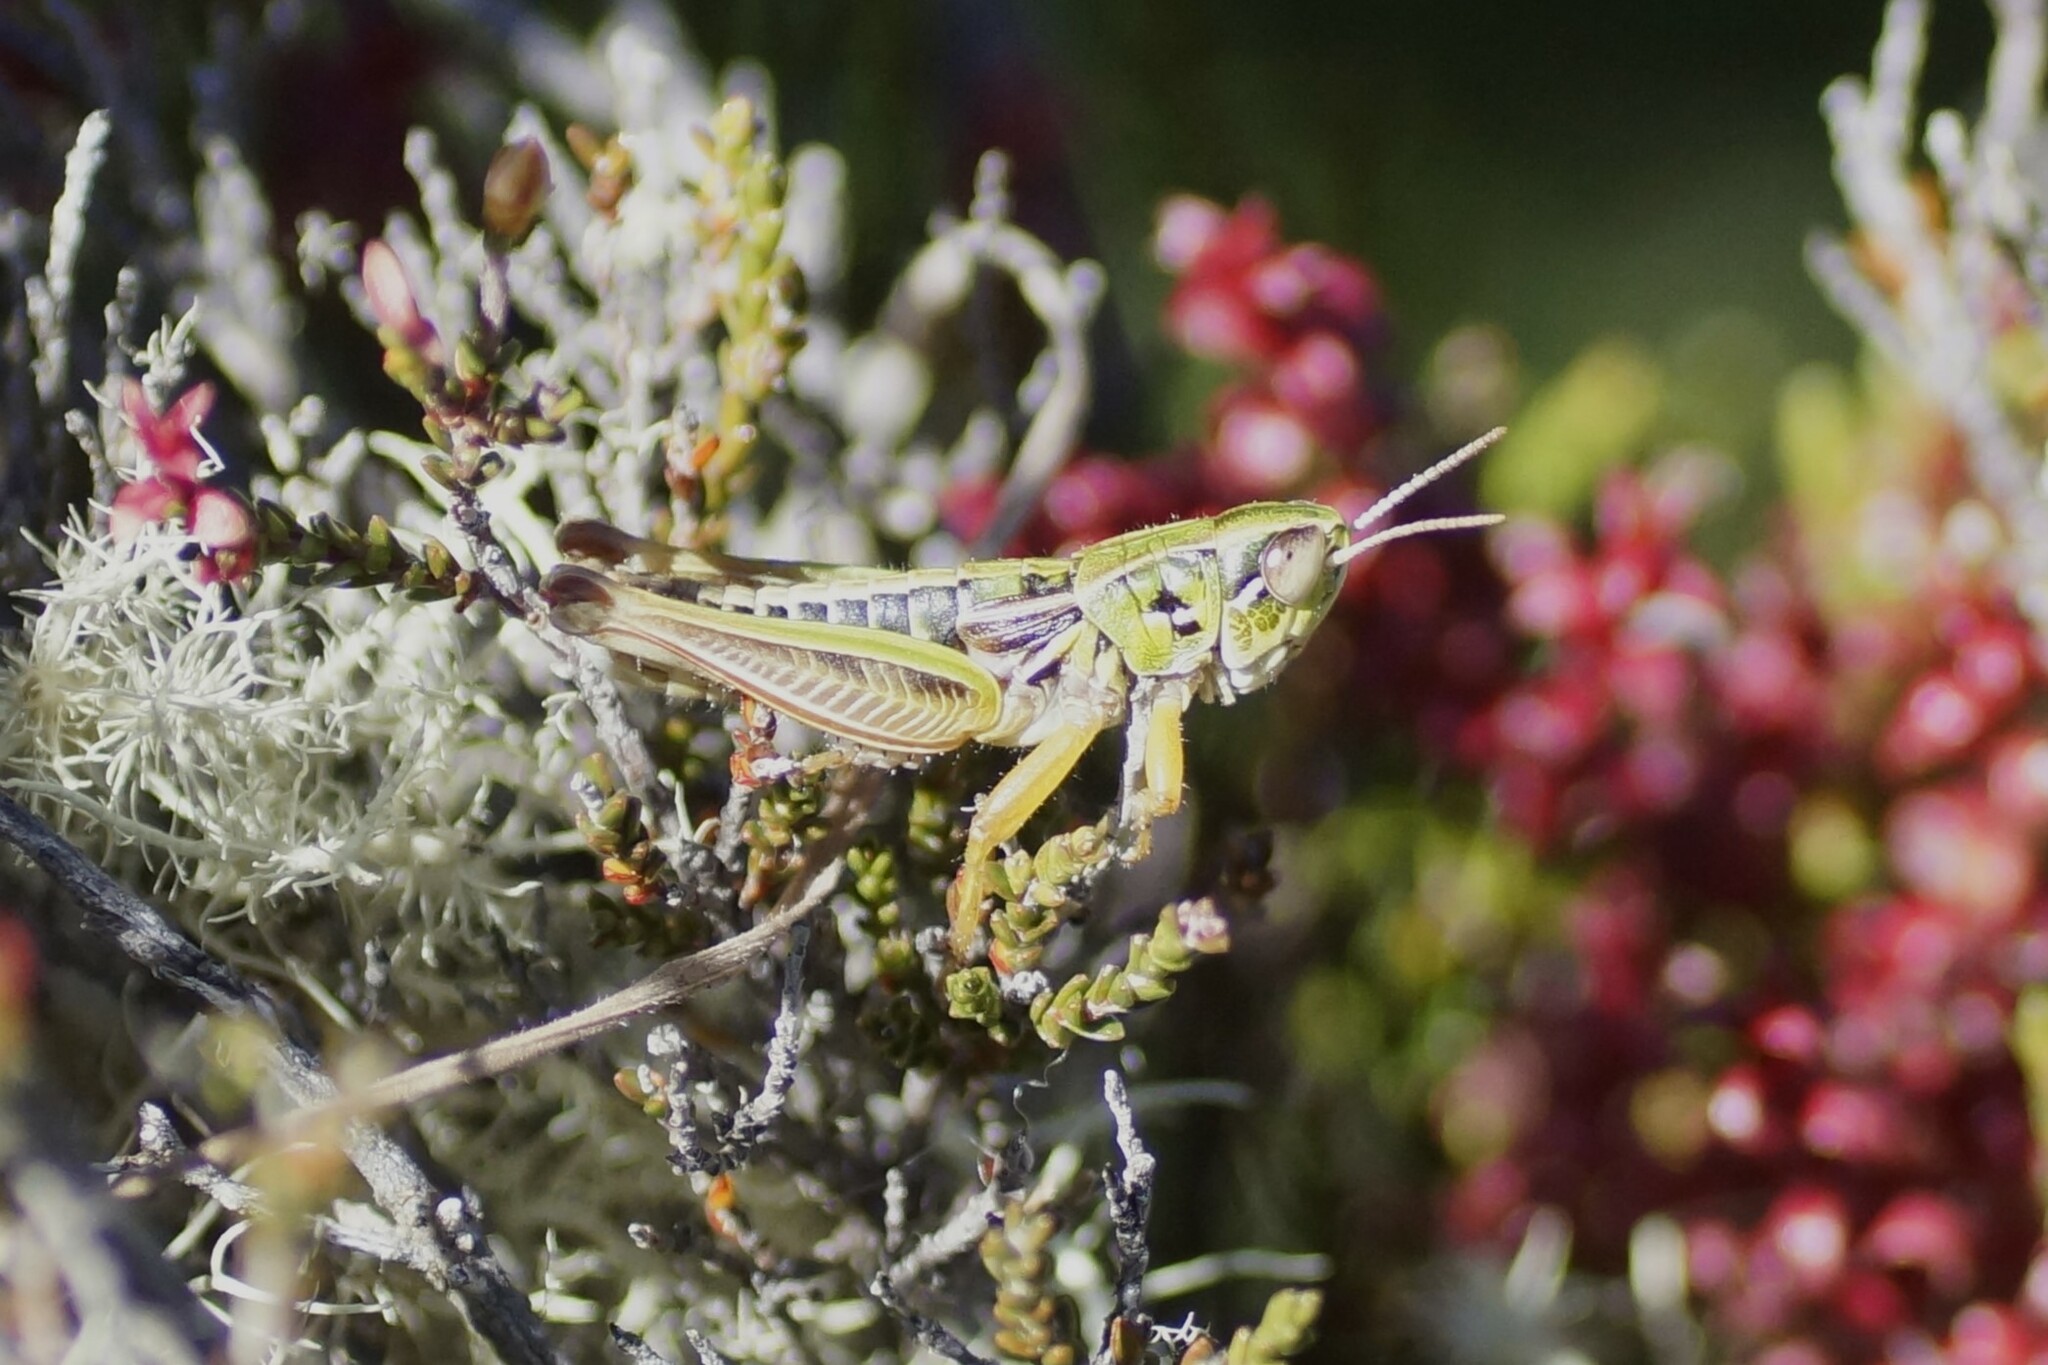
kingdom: Animalia
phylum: Arthropoda
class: Insecta
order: Orthoptera
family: Acrididae
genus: Kosciuscola
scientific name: Kosciuscola tasmanicus
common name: Tasmanian skyhopper
